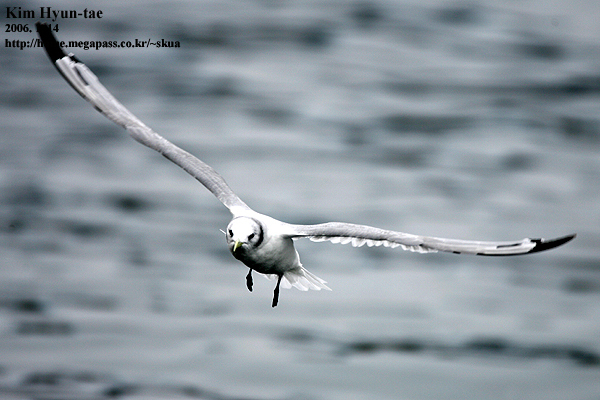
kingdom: Animalia
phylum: Chordata
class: Aves
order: Charadriiformes
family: Laridae
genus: Rissa
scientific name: Rissa tridactyla
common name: Black-legged kittiwake
